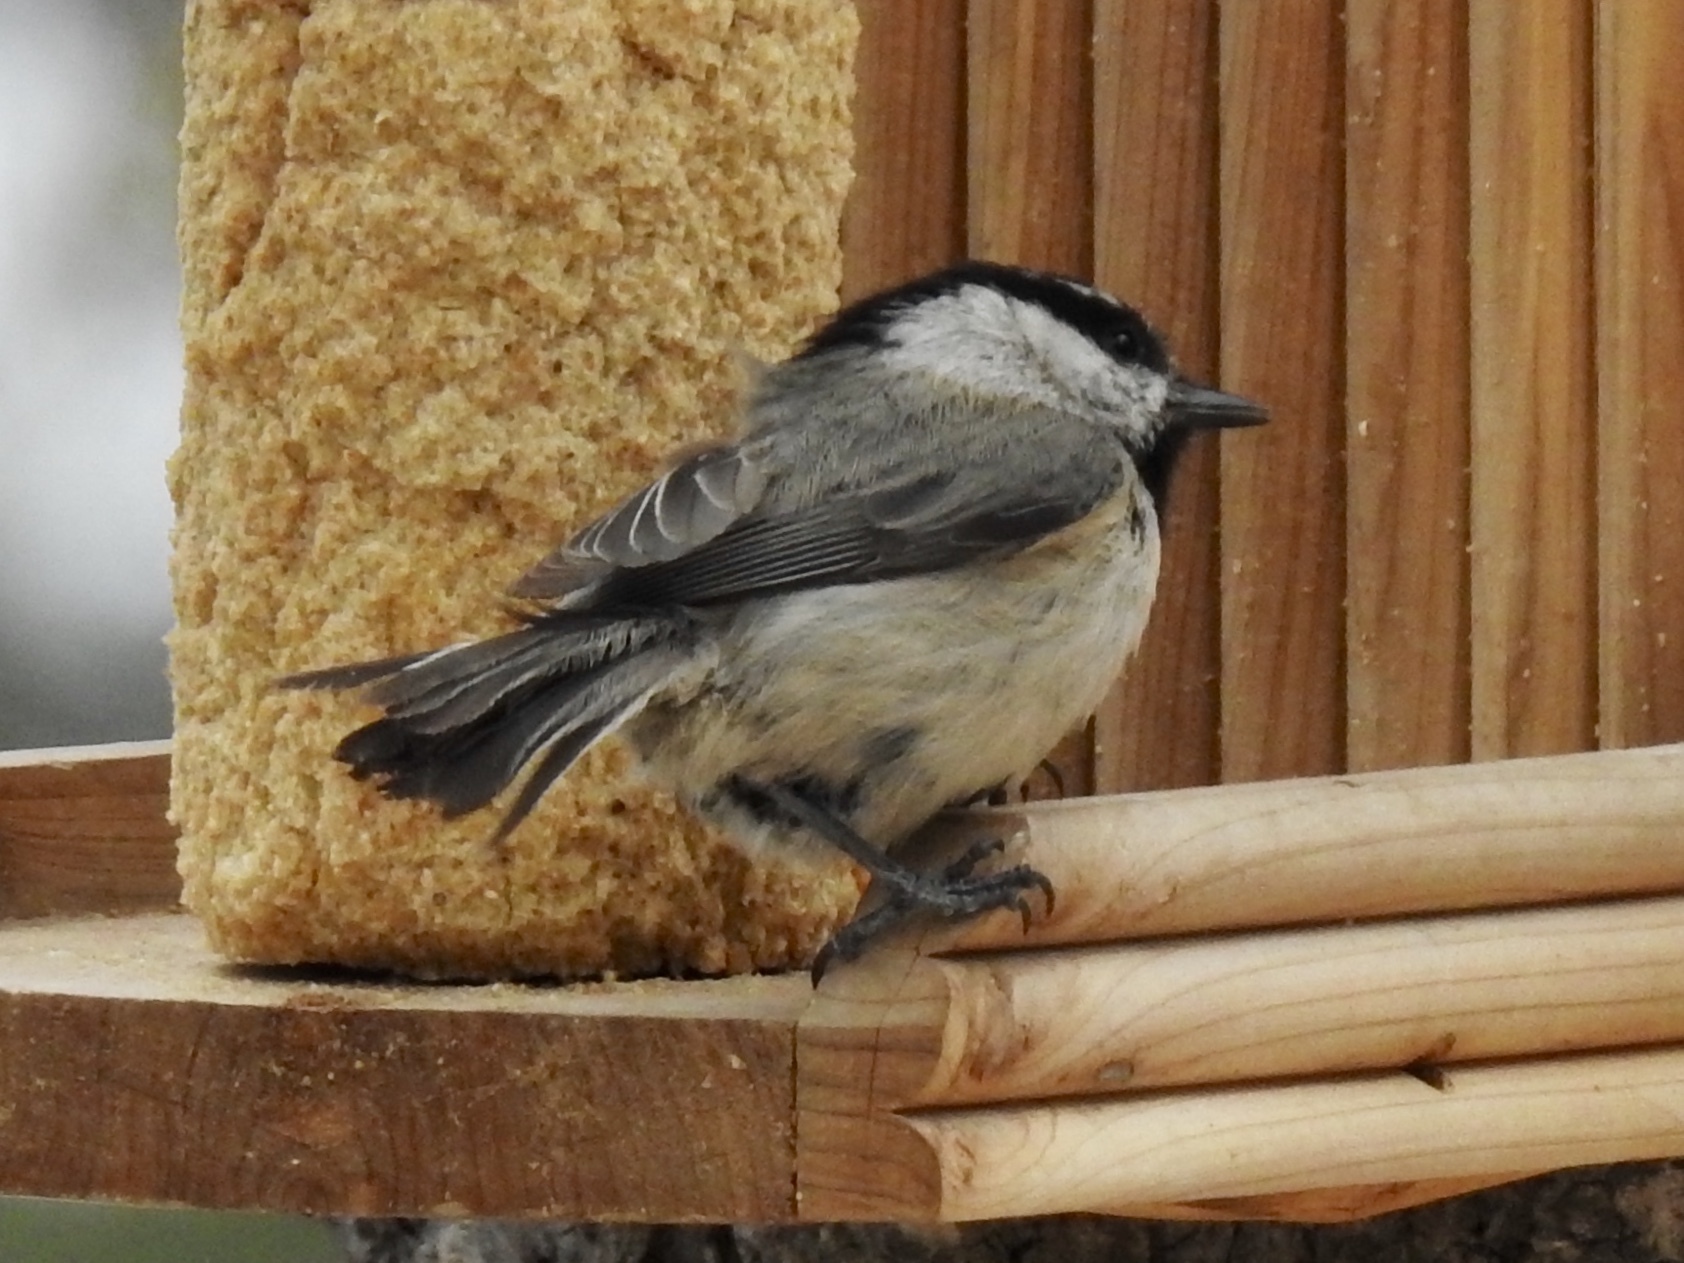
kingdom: Animalia
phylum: Chordata
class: Aves
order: Passeriformes
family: Paridae
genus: Poecile
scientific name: Poecile gambeli
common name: Mountain chickadee
